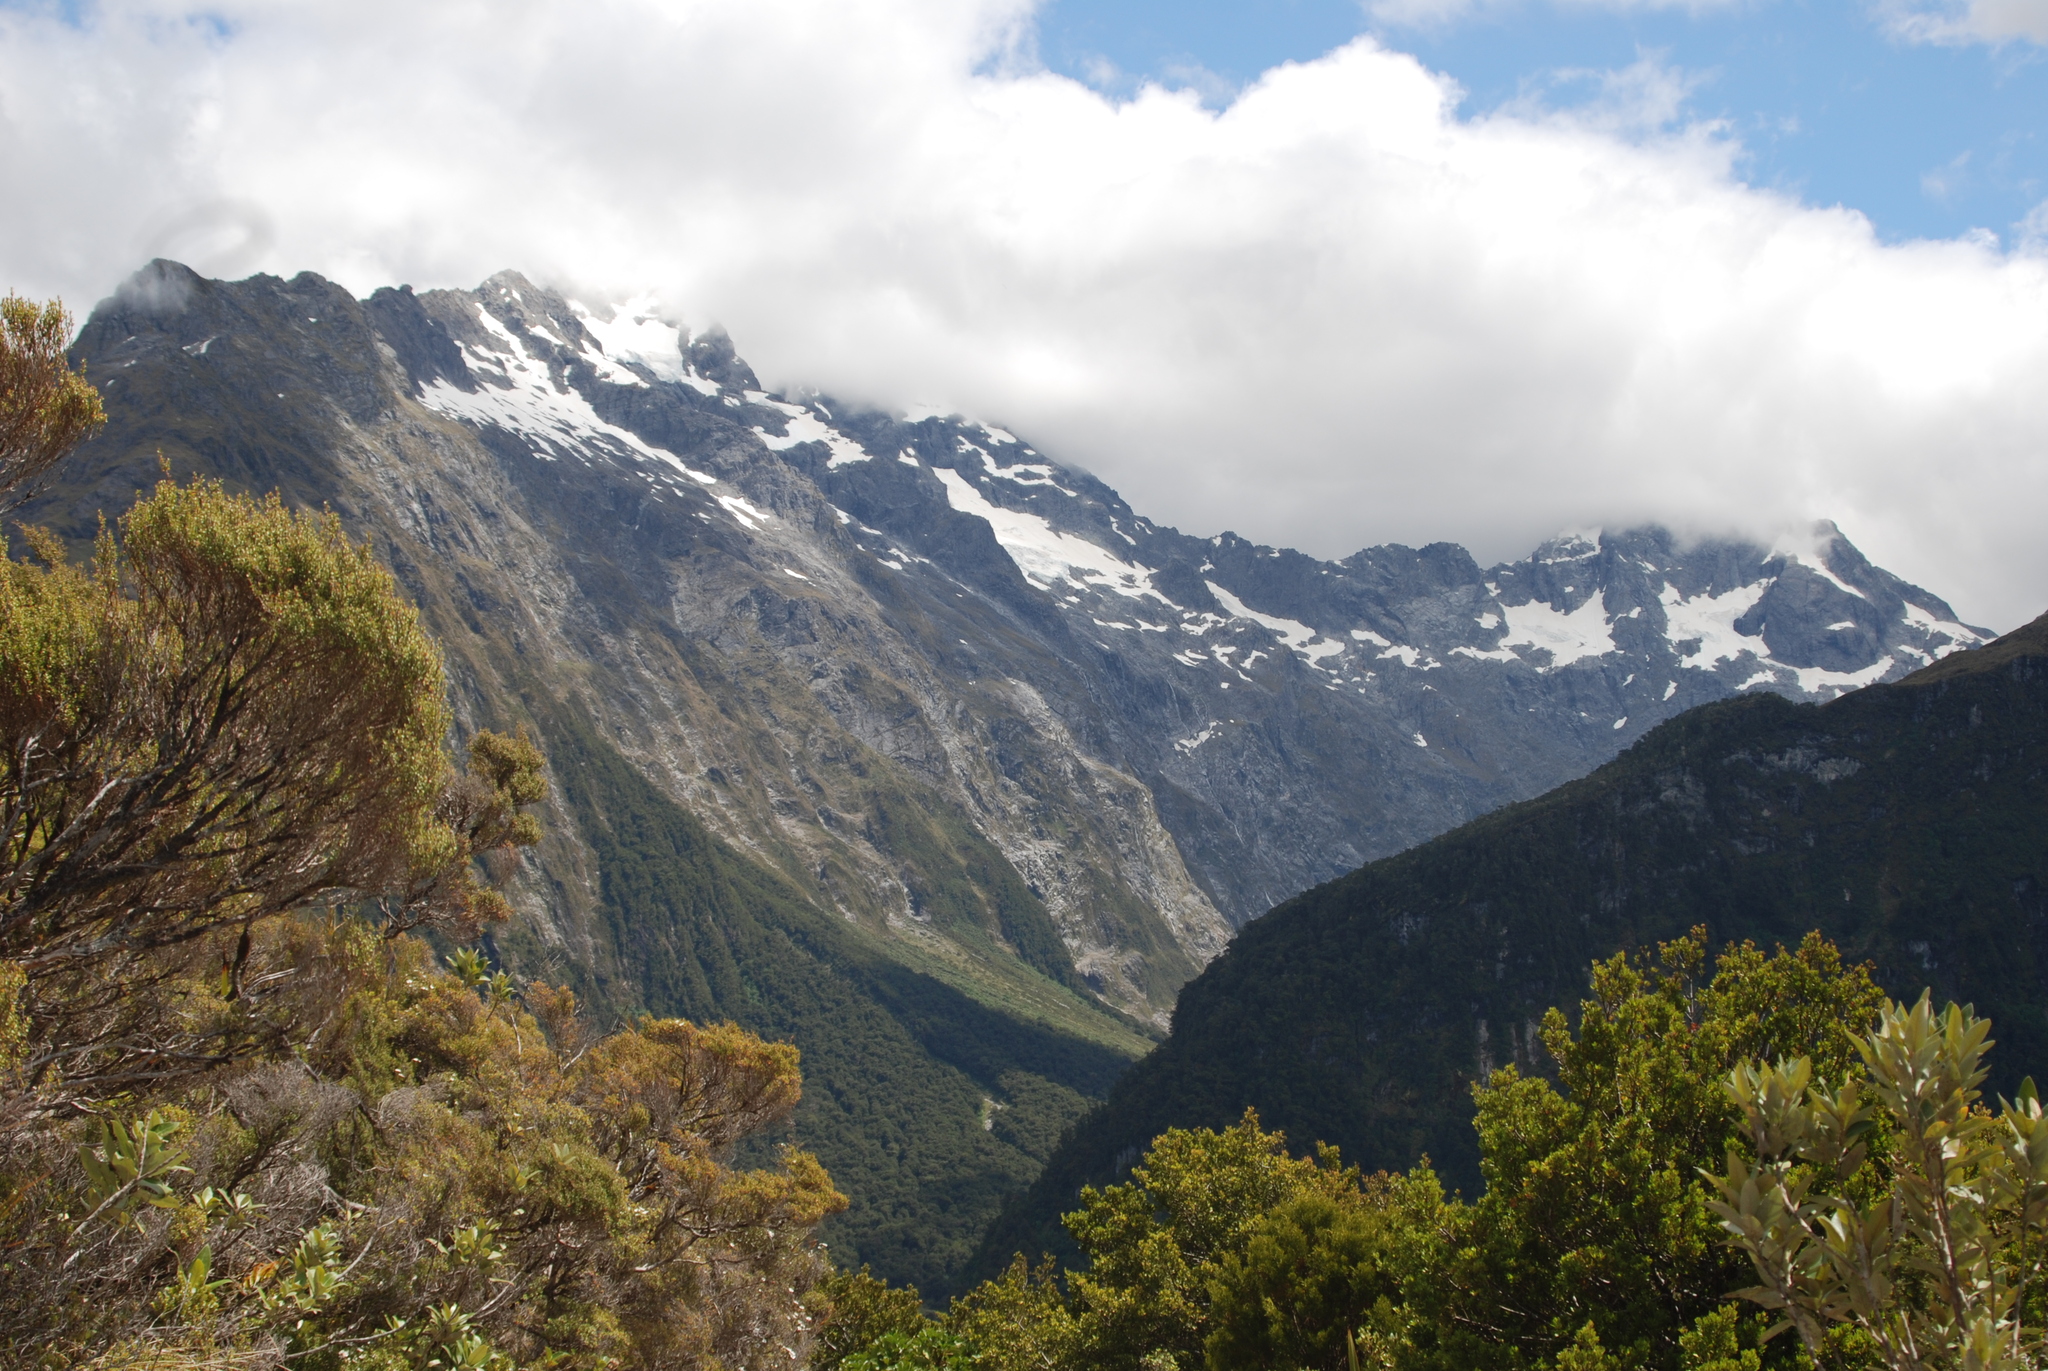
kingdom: Plantae
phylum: Tracheophyta
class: Magnoliopsida
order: Asterales
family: Asteraceae
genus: Olearia
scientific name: Olearia avicenniifolia
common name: Mangrove-leaf daisybush
